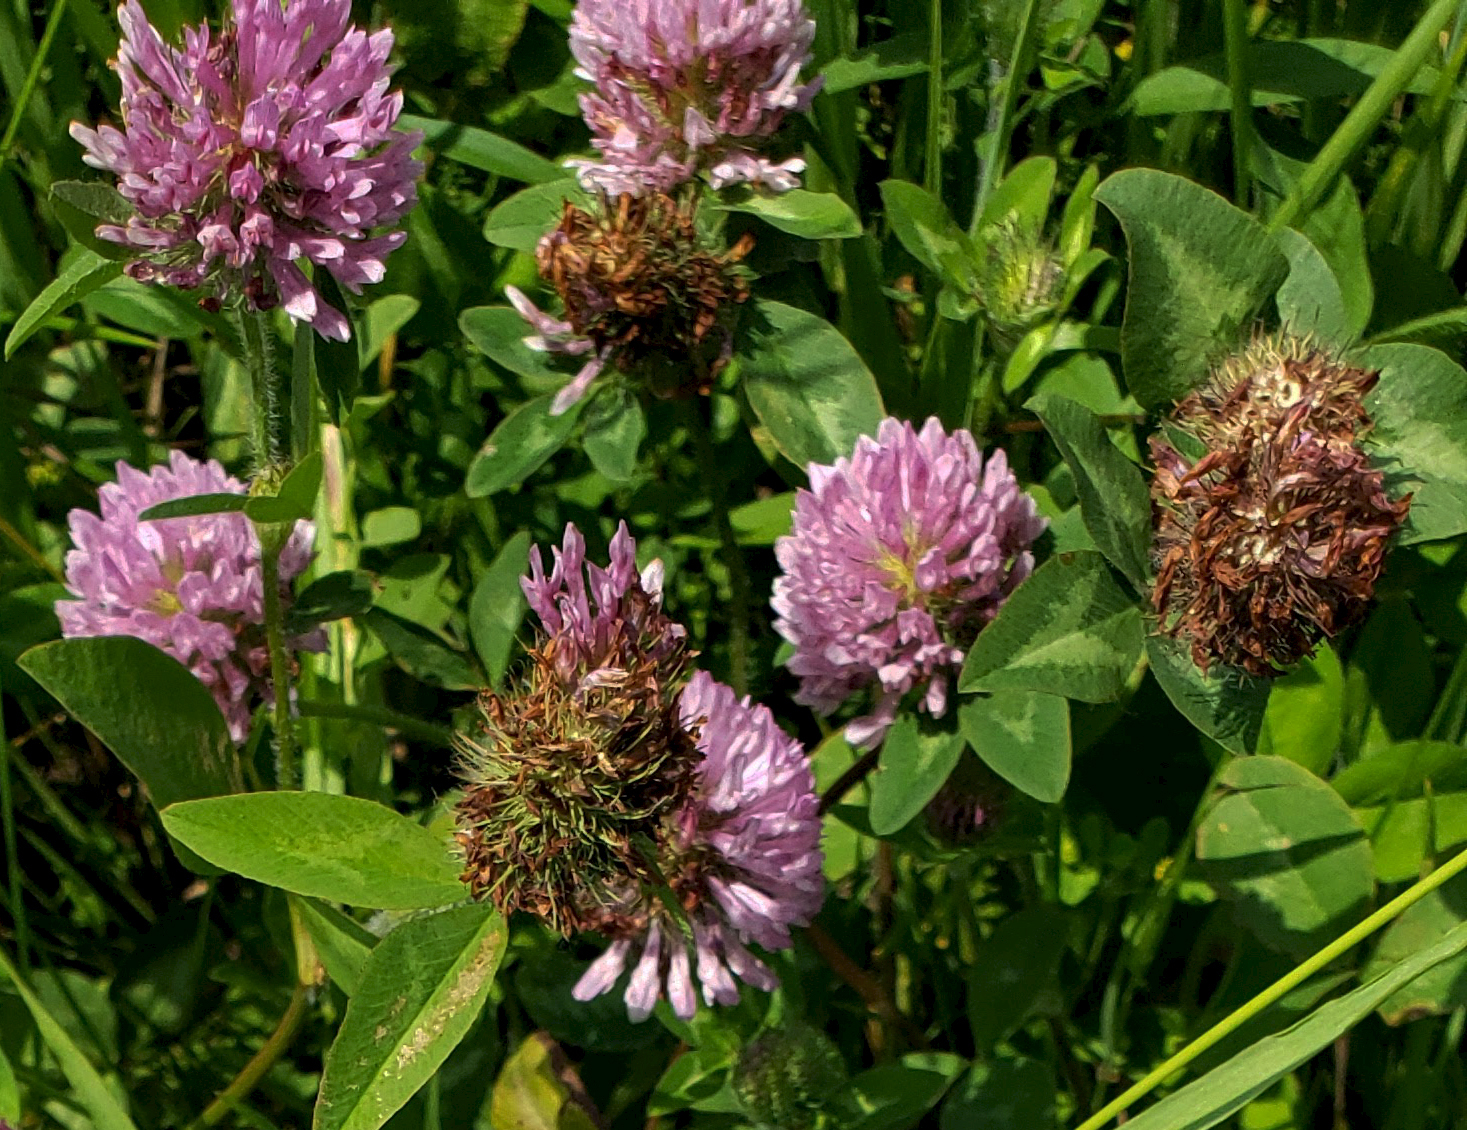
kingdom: Plantae
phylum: Tracheophyta
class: Magnoliopsida
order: Fabales
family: Fabaceae
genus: Trifolium
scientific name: Trifolium pratense
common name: Red clover
